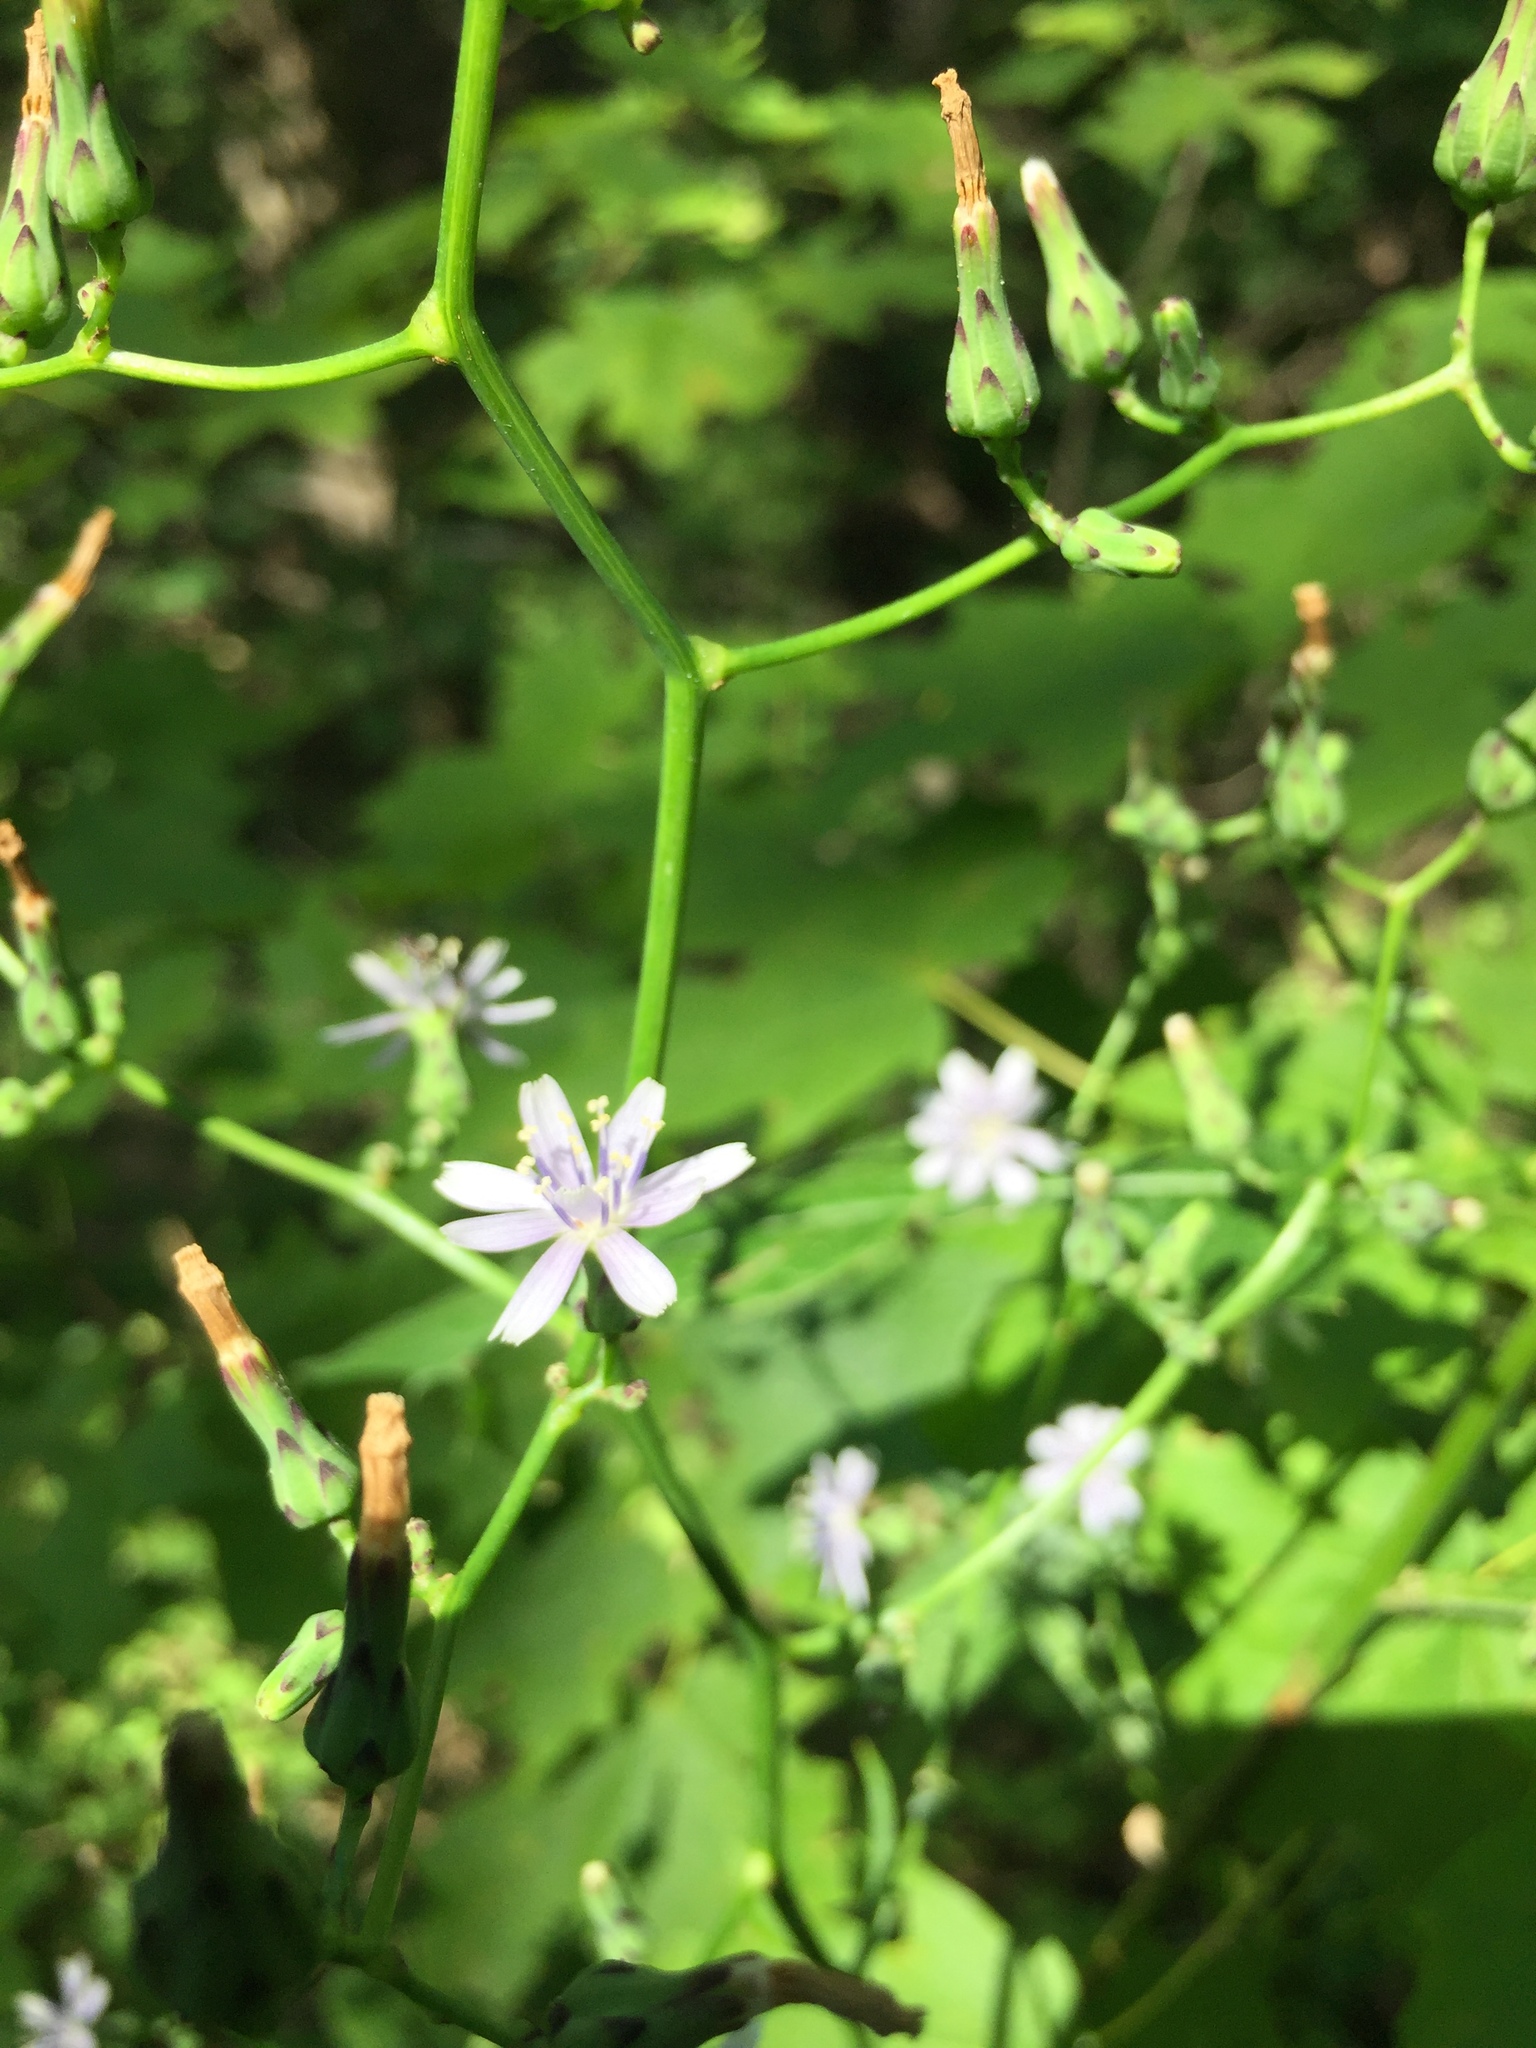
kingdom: Plantae
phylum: Tracheophyta
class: Magnoliopsida
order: Asterales
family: Asteraceae
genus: Lactuca
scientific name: Lactuca floridana
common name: Woodland lettuce
